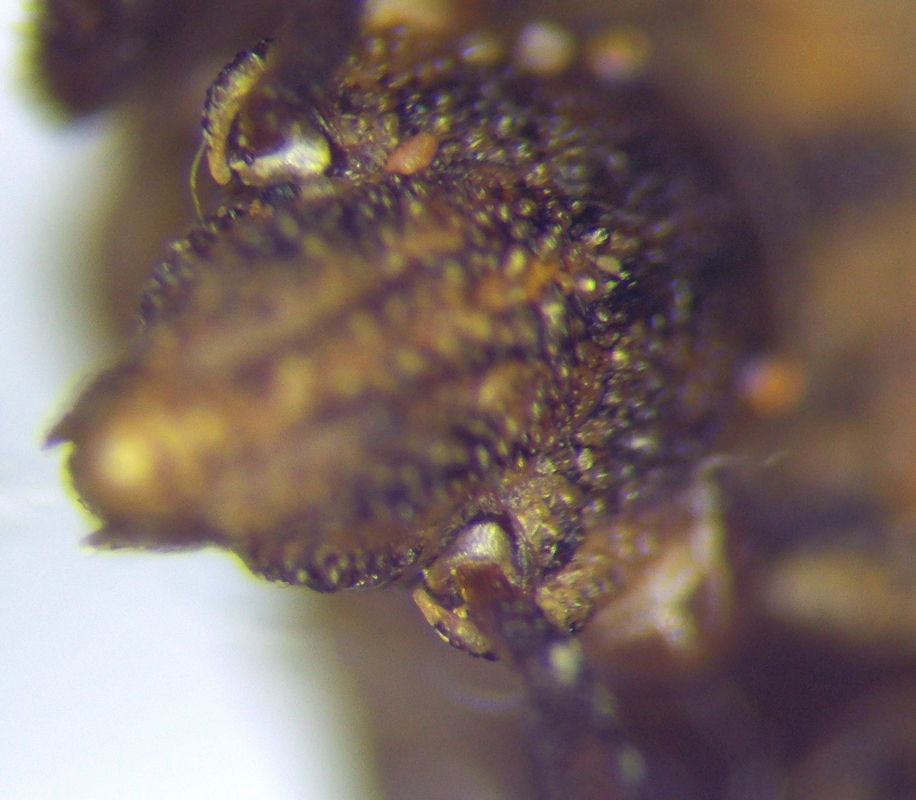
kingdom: Animalia
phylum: Arthropoda
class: Insecta
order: Hemiptera
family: Coreidae
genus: Ceraleptus
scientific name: Ceraleptus gracilicornis
